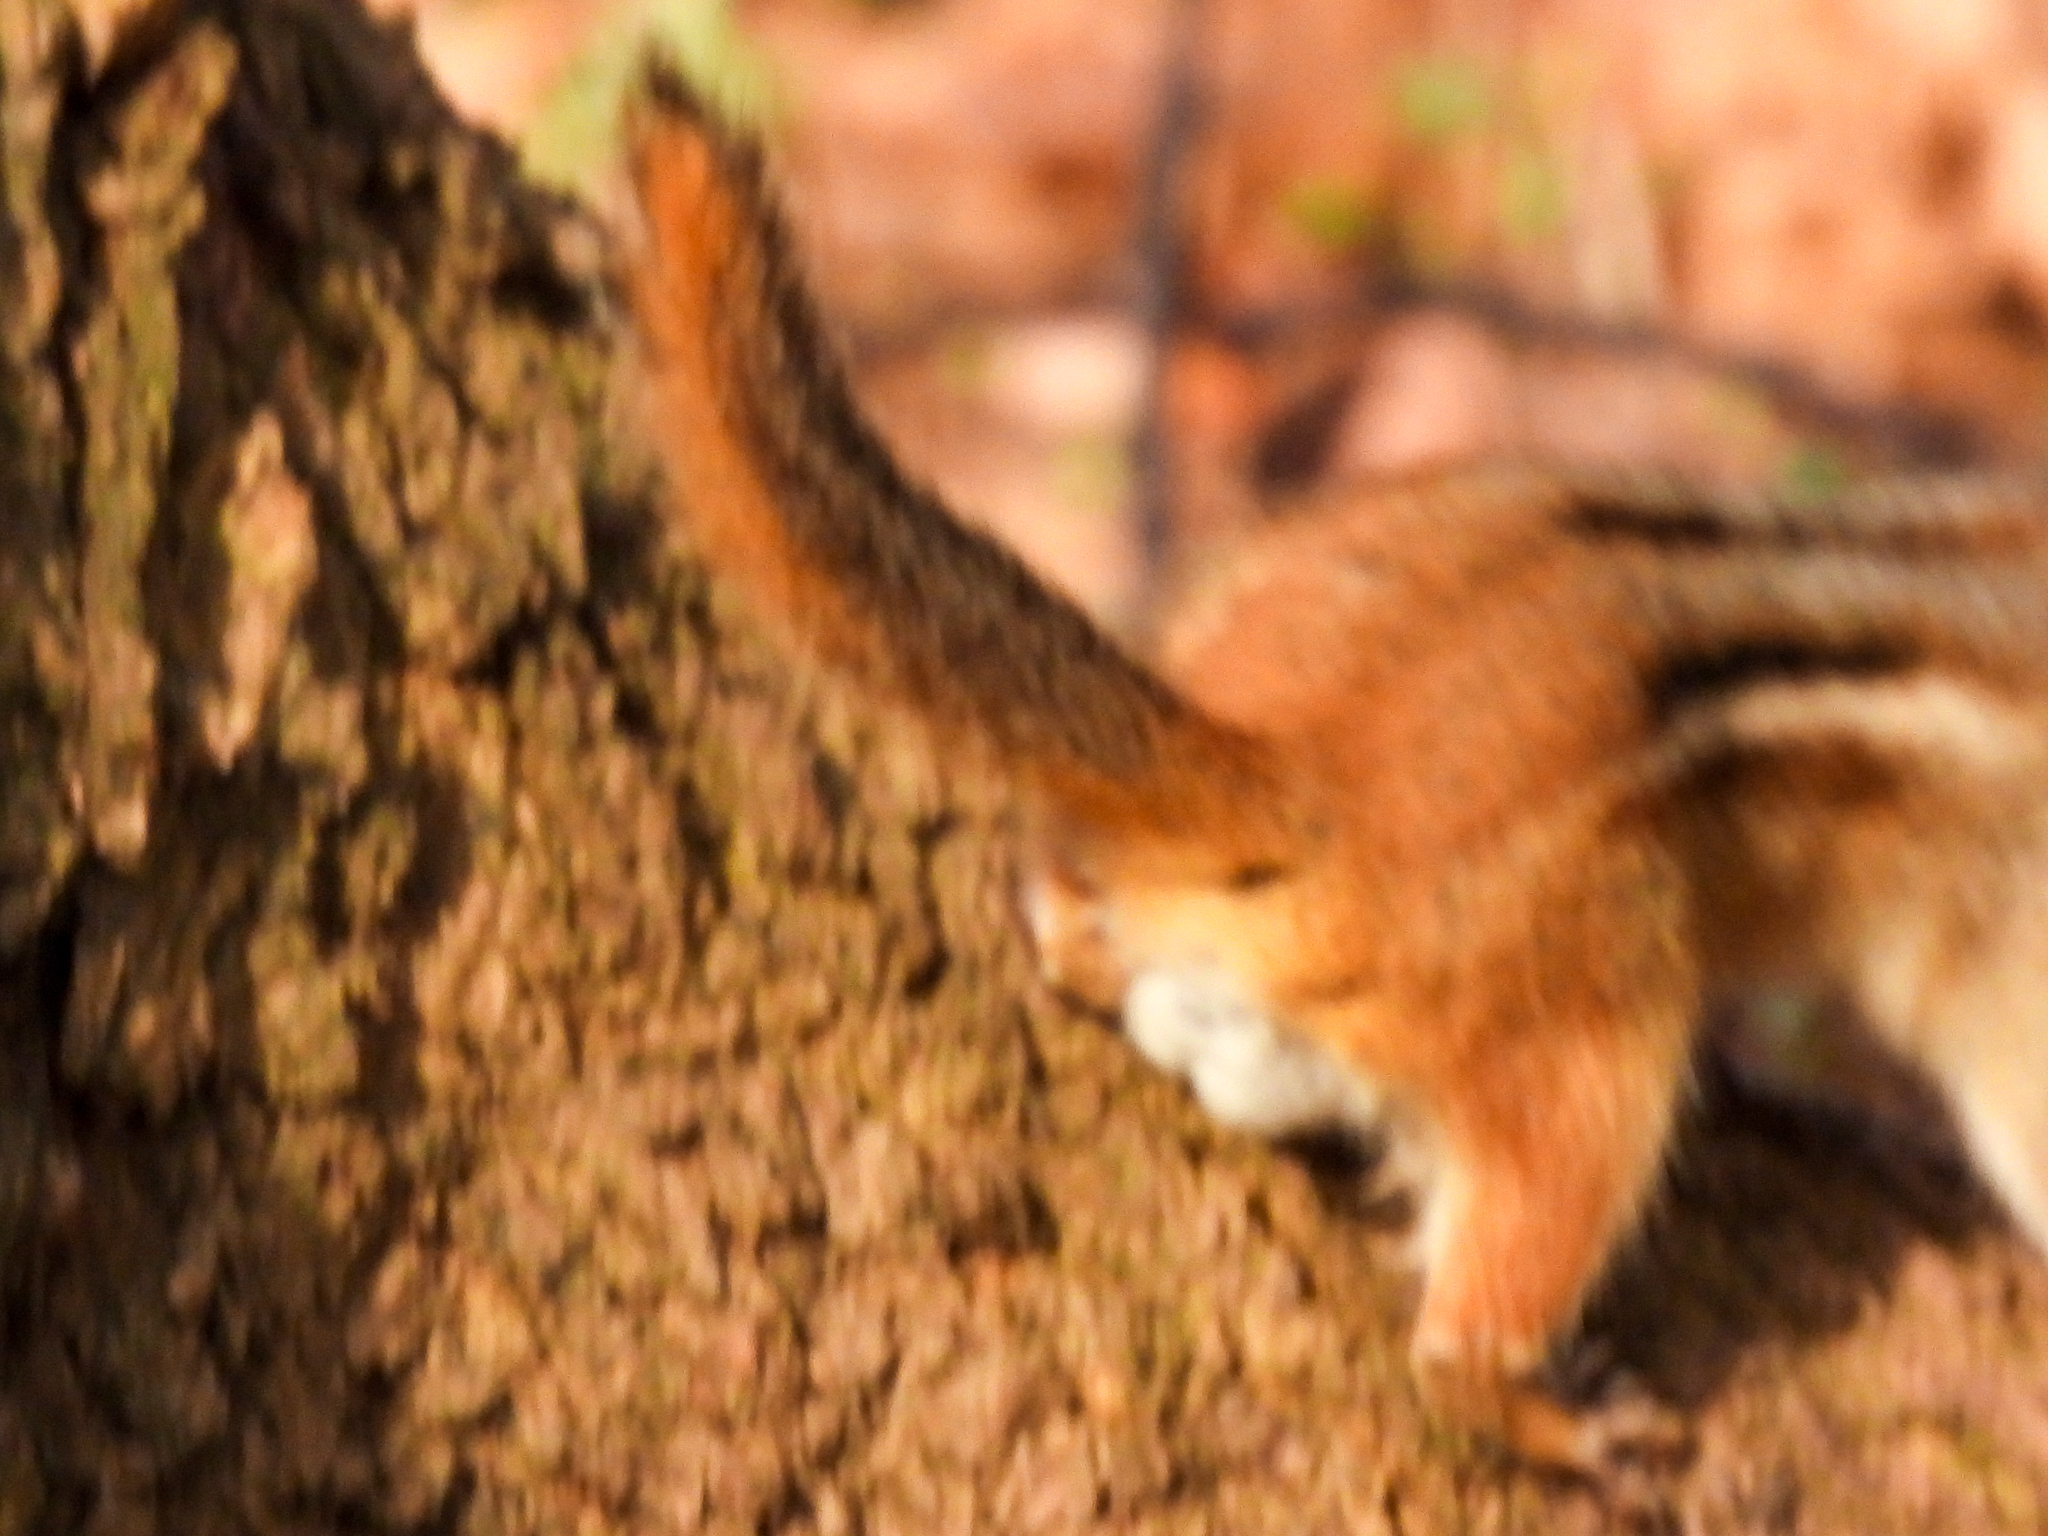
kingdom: Animalia
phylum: Chordata
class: Mammalia
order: Rodentia
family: Sciuridae
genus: Tamias
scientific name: Tamias striatus
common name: Eastern chipmunk
